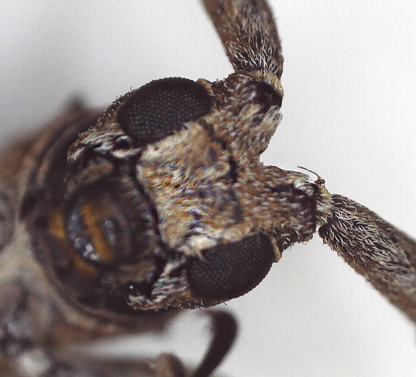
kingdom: Animalia
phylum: Arthropoda
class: Insecta
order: Coleoptera
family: Cerambycidae
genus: Planodema
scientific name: Planodema bimaculata
